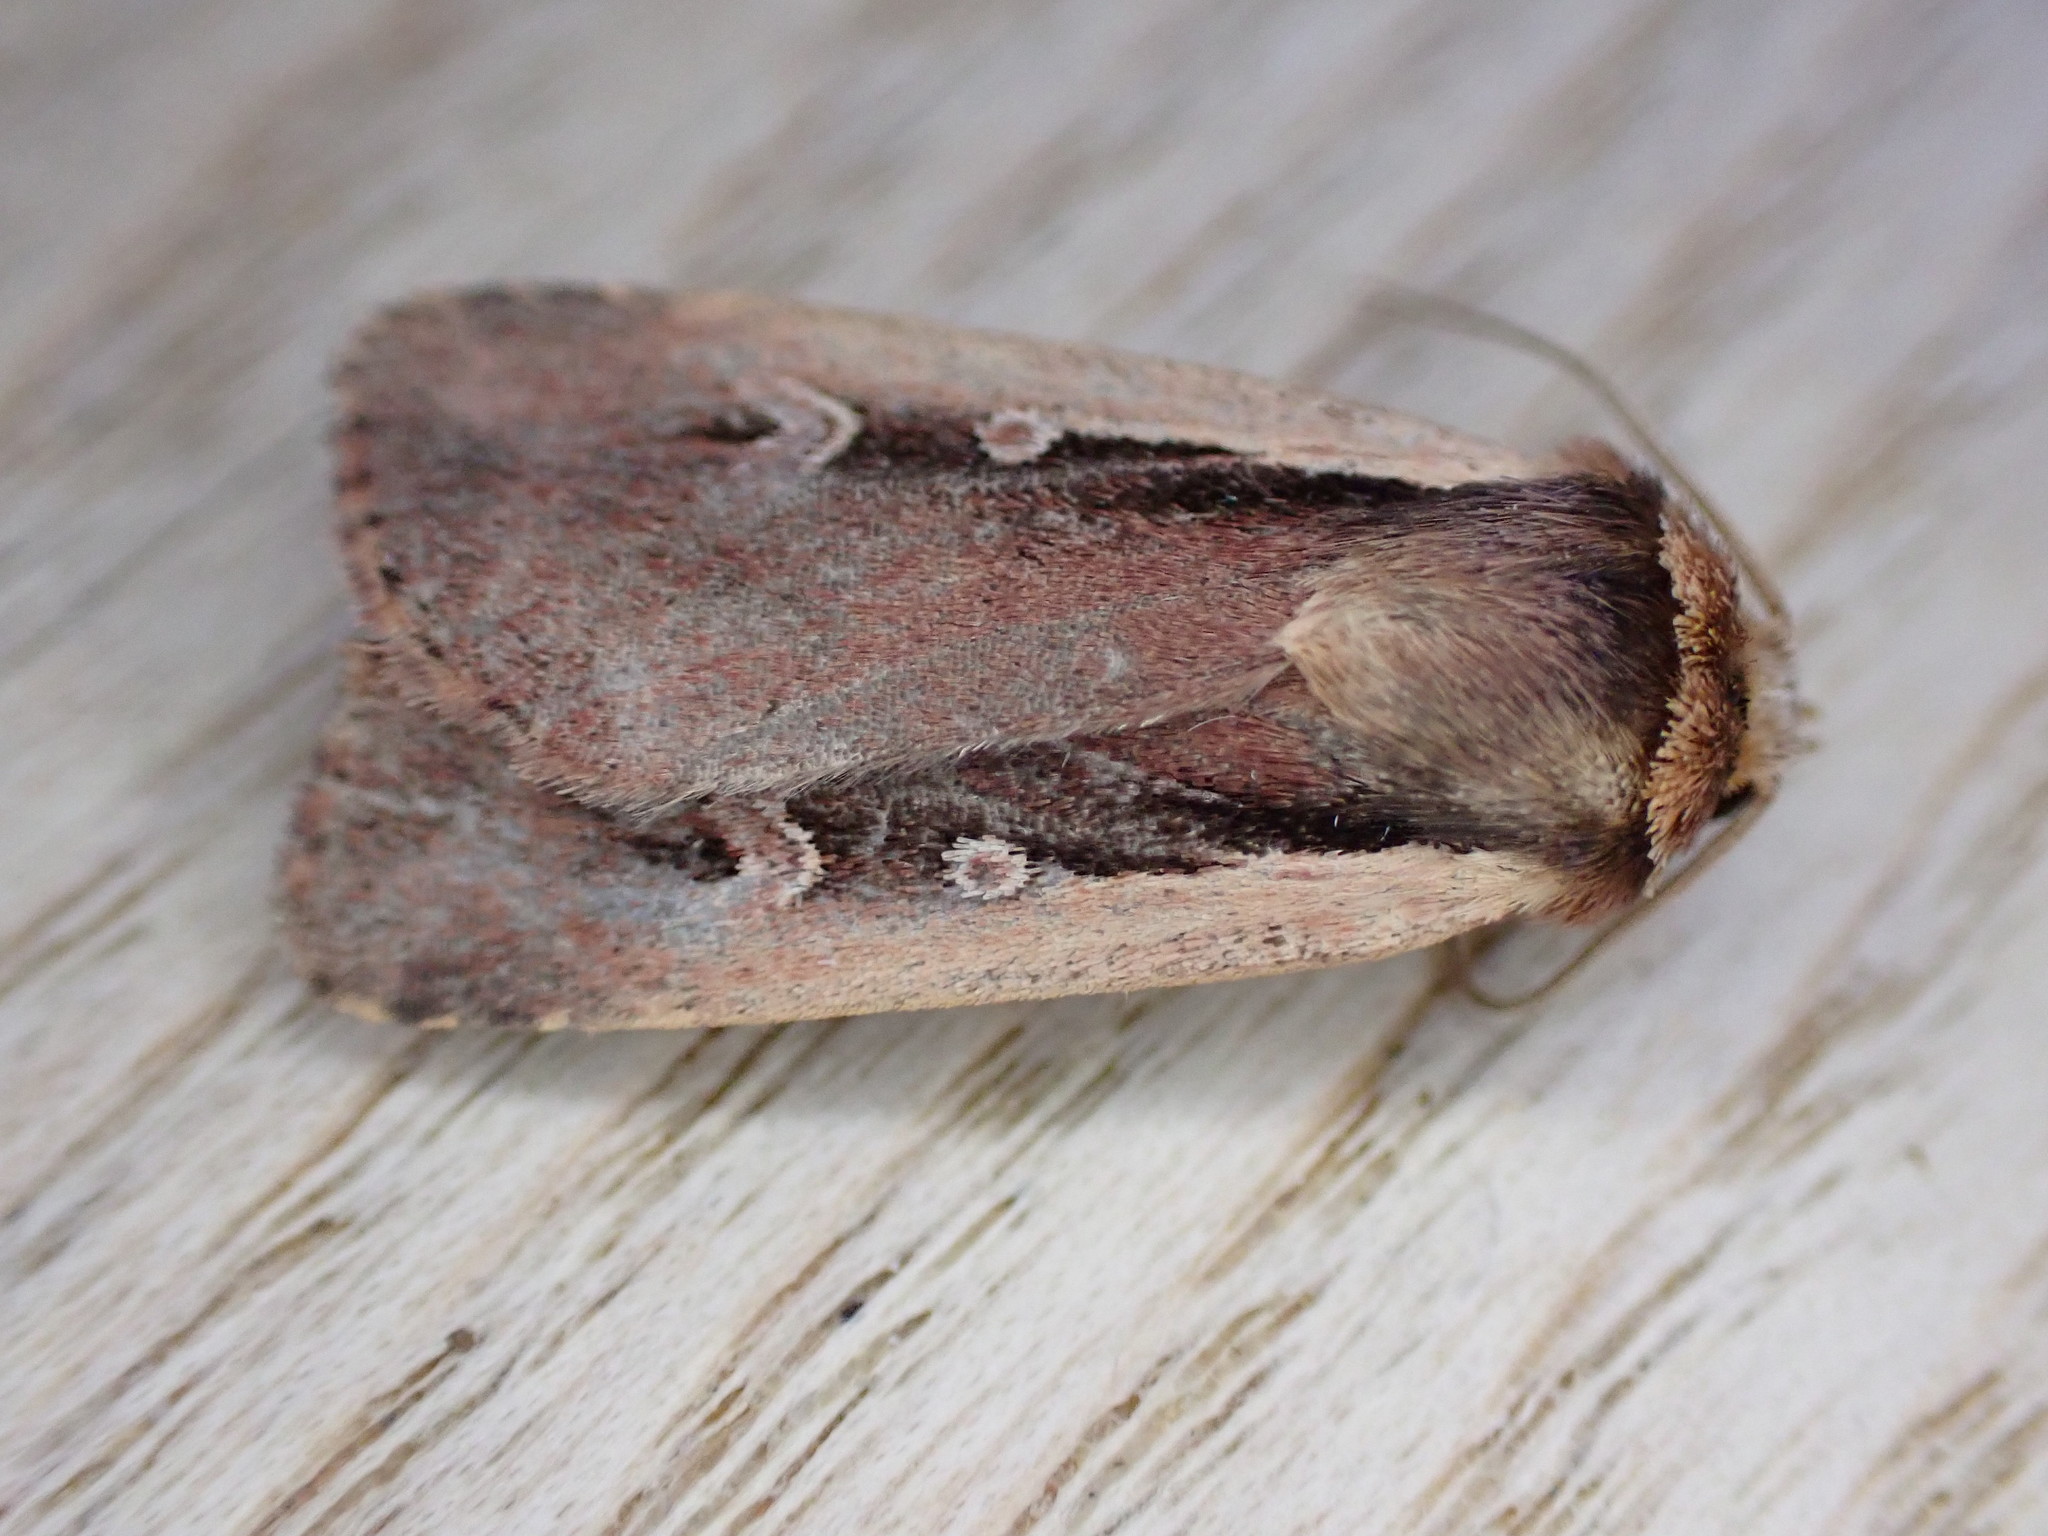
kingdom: Animalia
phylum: Arthropoda
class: Insecta
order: Lepidoptera
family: Noctuidae
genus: Ochropleura
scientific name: Ochropleura plecta
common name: Flame shoulder
